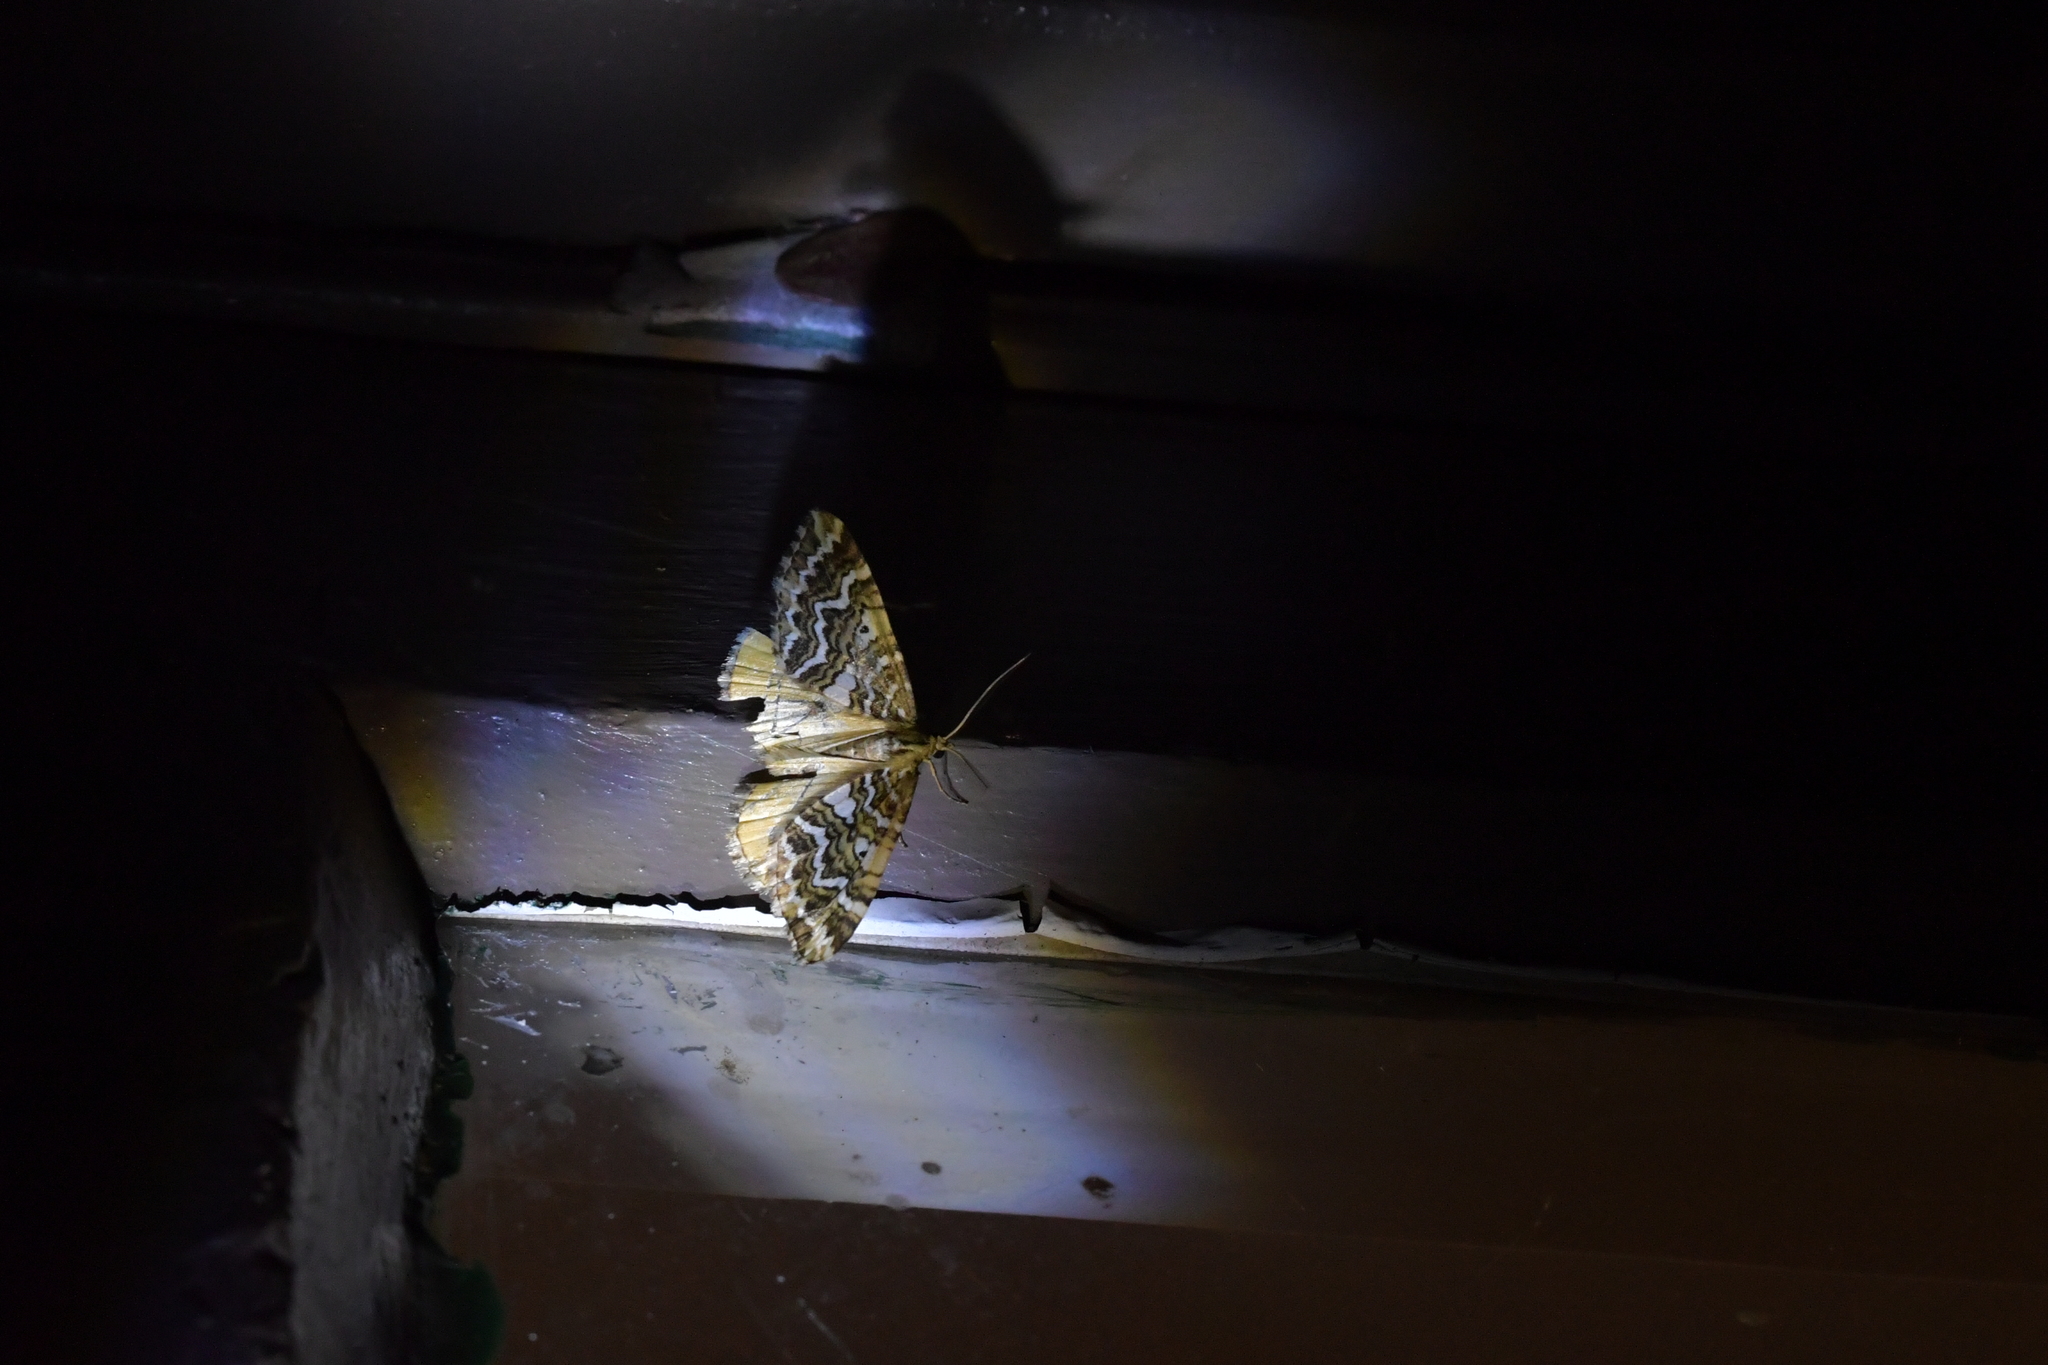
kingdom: Animalia
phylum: Arthropoda
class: Insecta
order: Lepidoptera
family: Geometridae
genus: Asaphodes
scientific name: Asaphodes clarata
